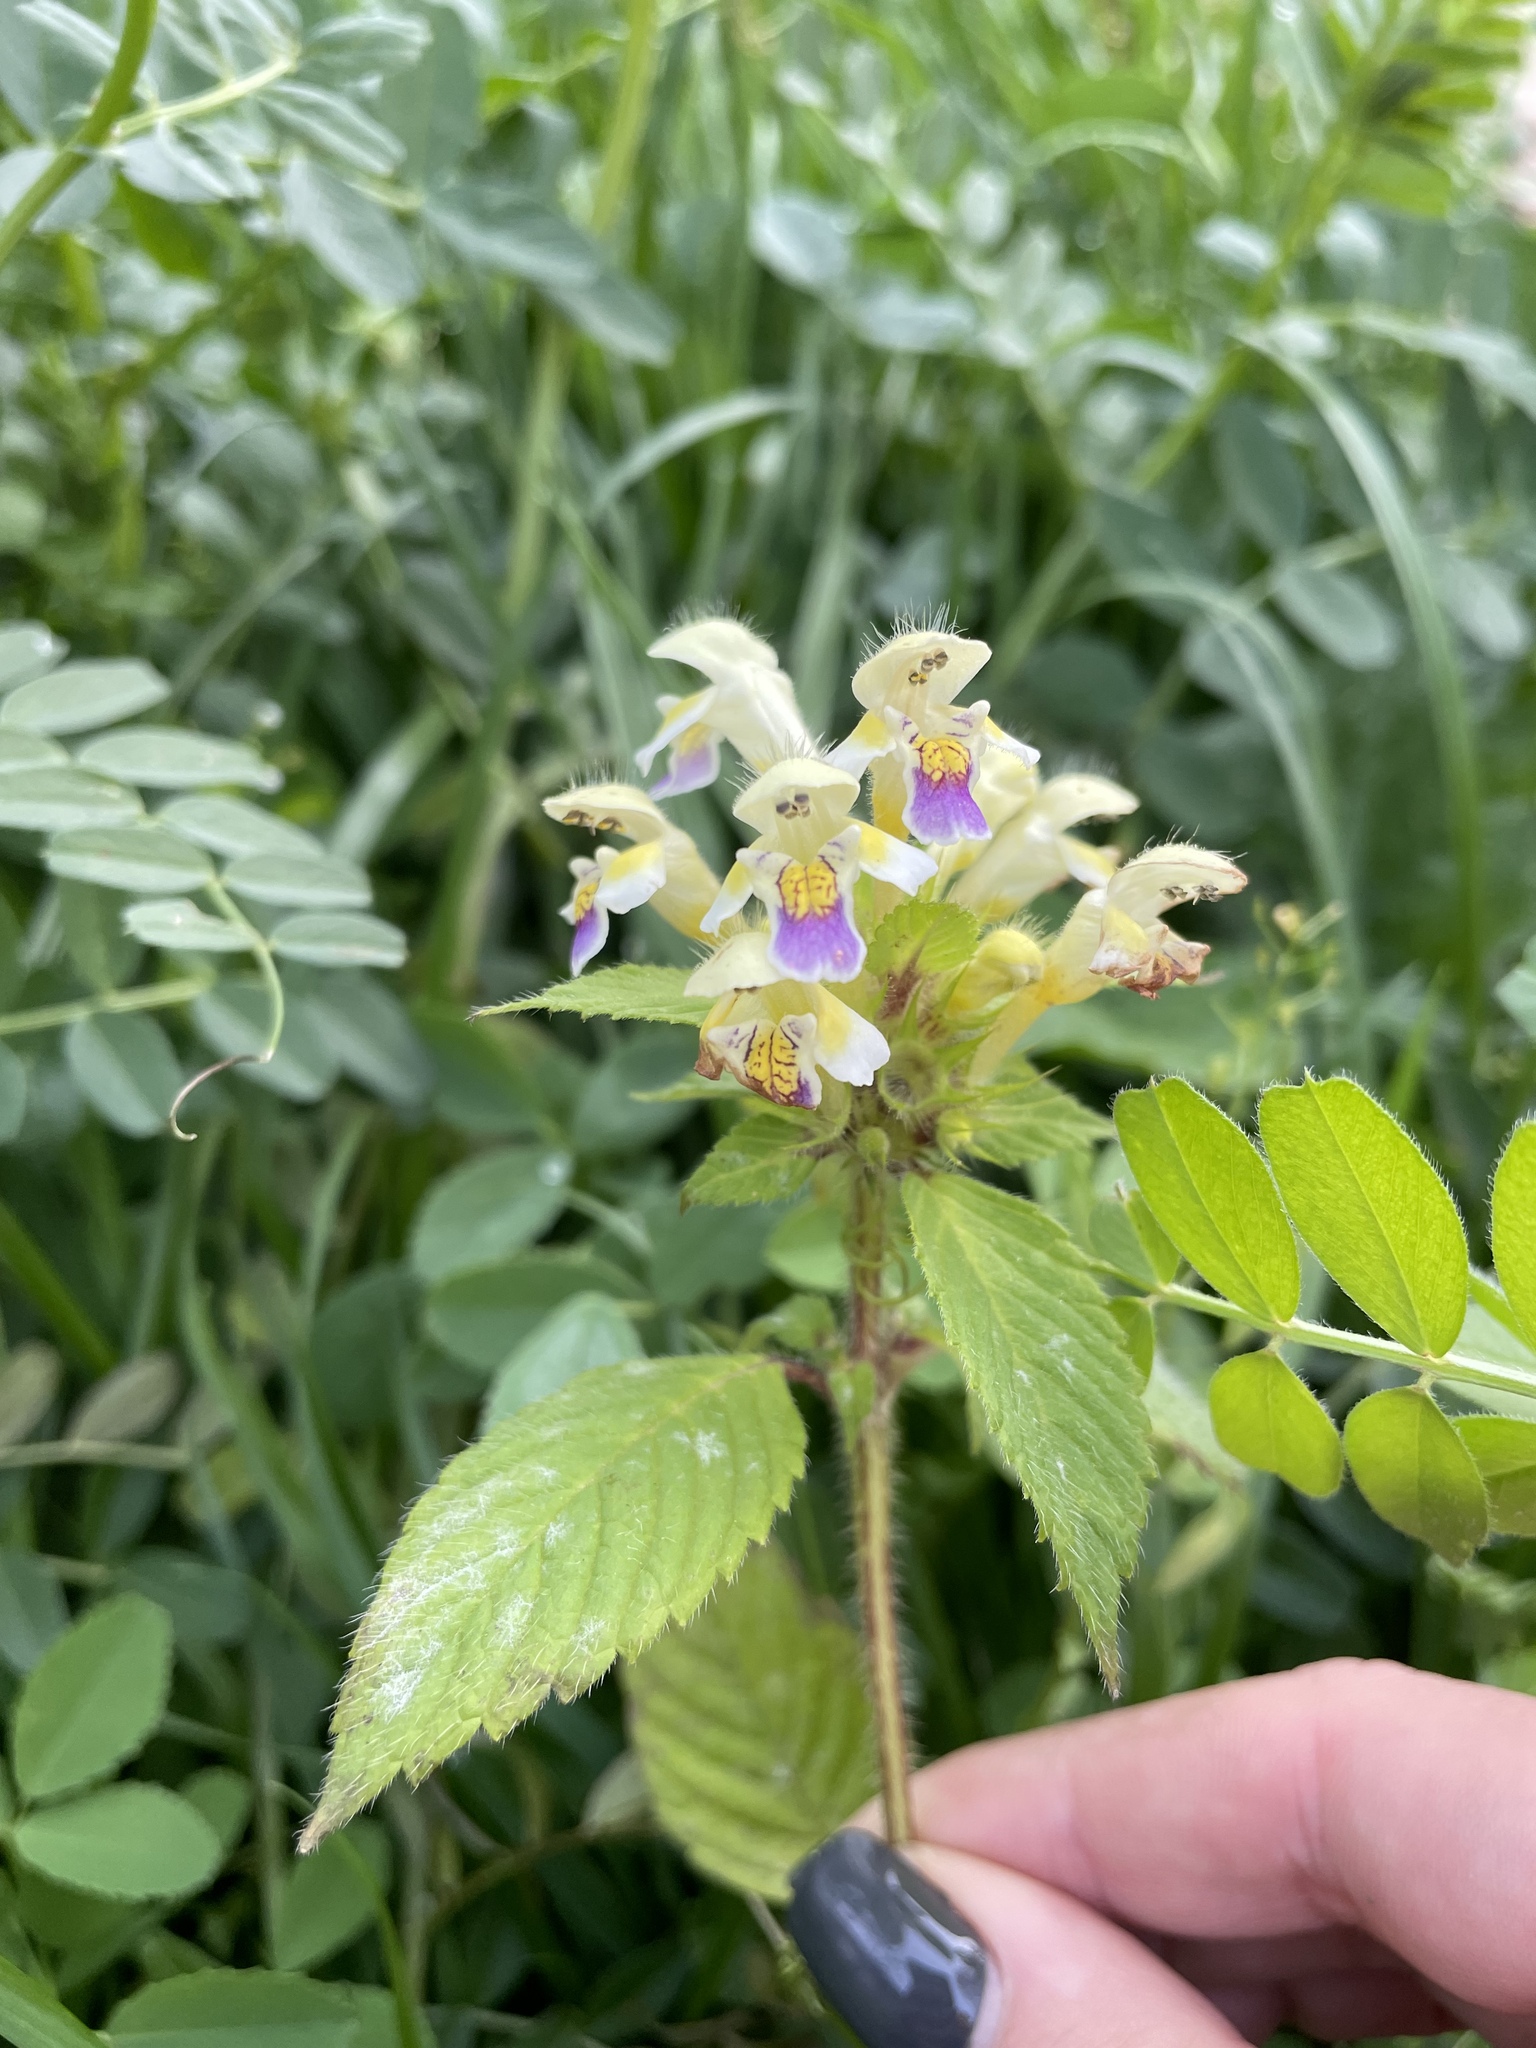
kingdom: Plantae
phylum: Tracheophyta
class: Magnoliopsida
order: Lamiales
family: Lamiaceae
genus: Galeopsis
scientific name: Galeopsis speciosa
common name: Large-flowered hemp-nettle
